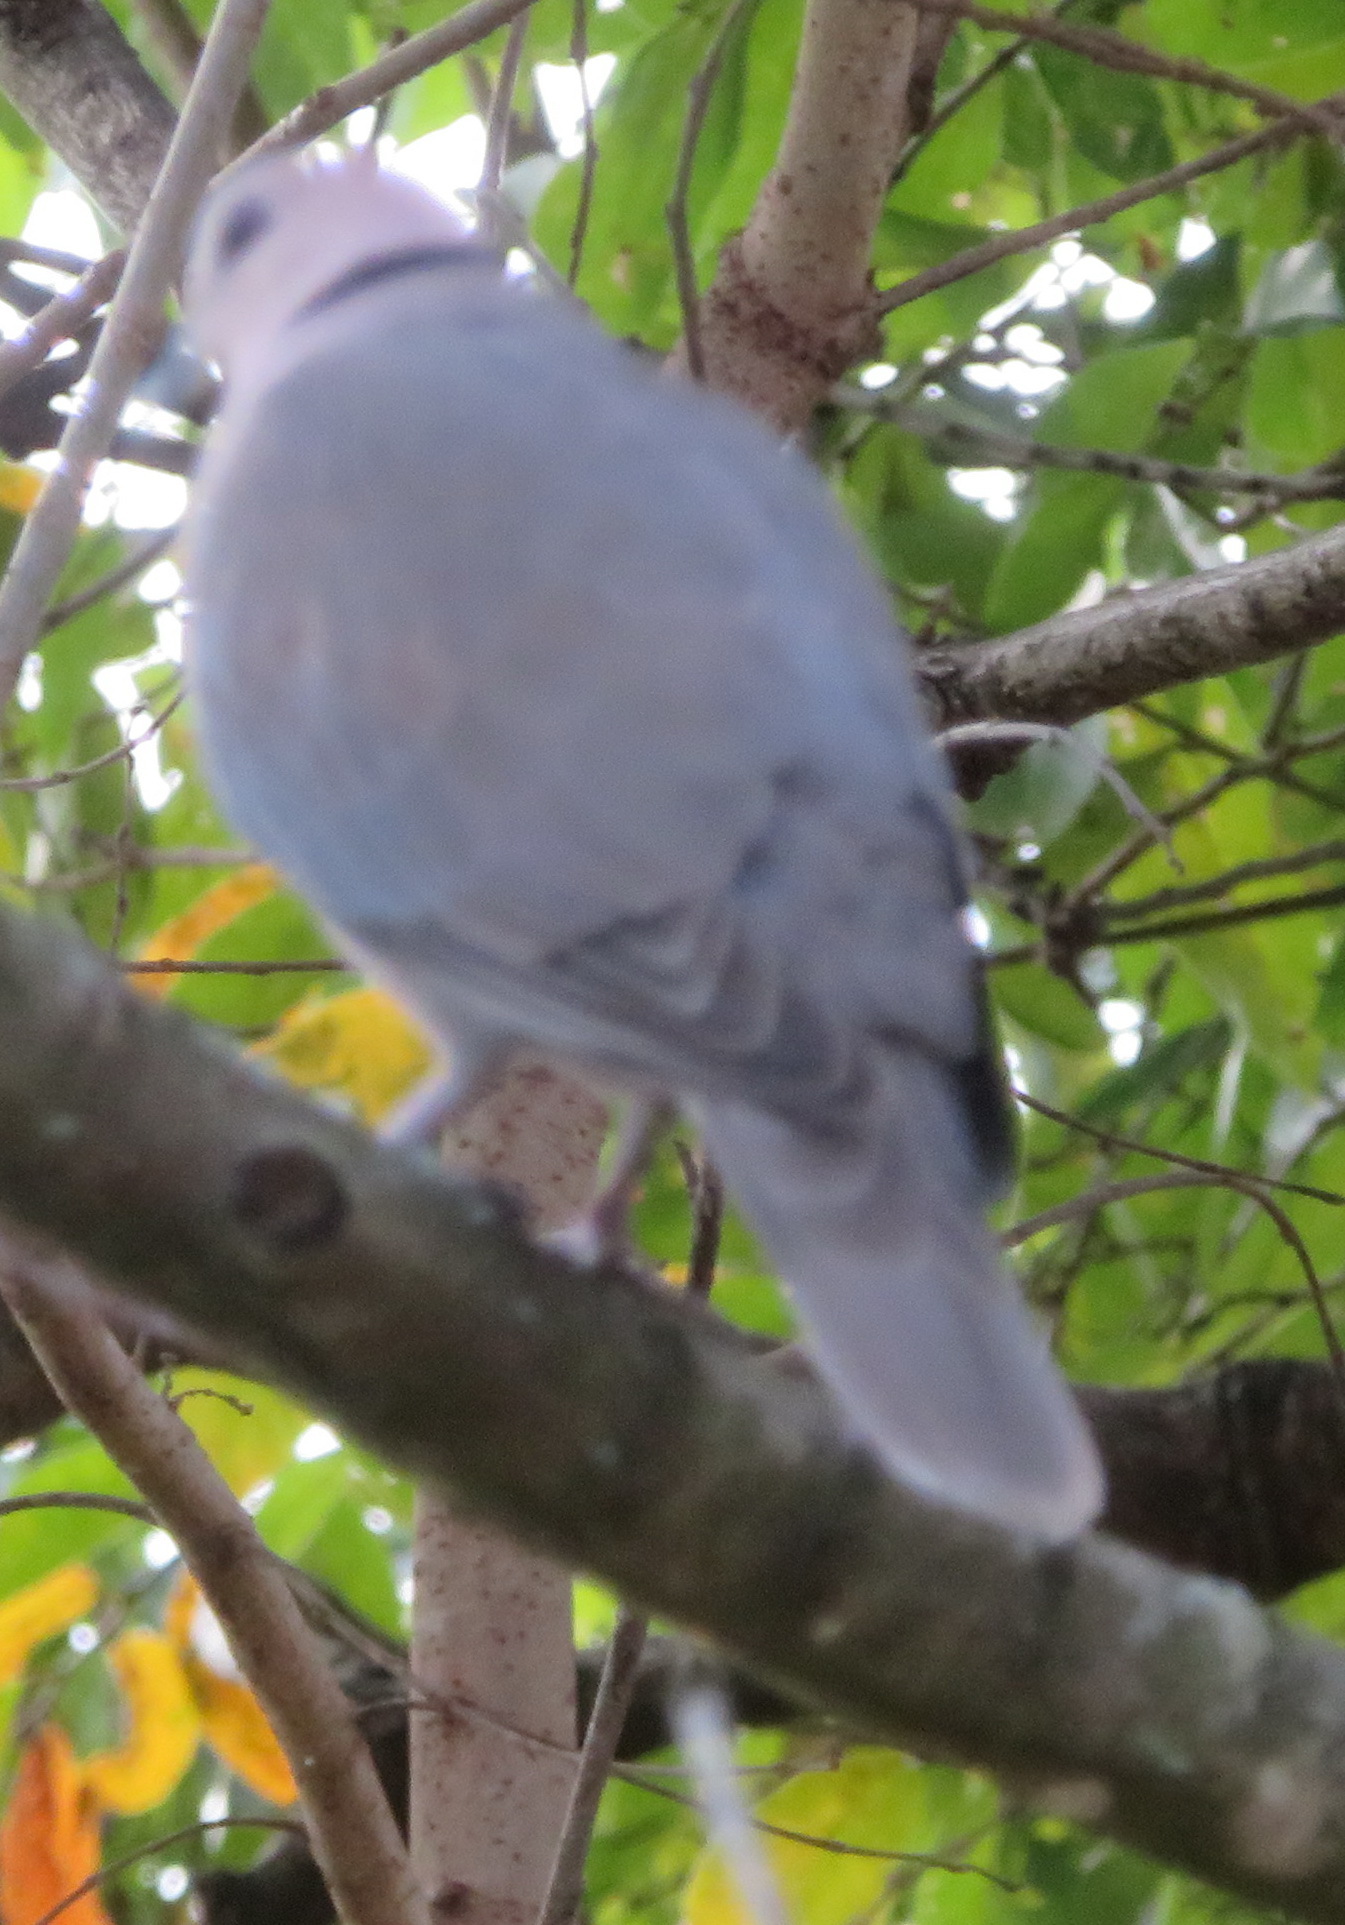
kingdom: Animalia
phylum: Chordata
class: Aves
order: Columbiformes
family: Columbidae
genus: Streptopelia
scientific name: Streptopelia semitorquata
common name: Red-eyed dove
